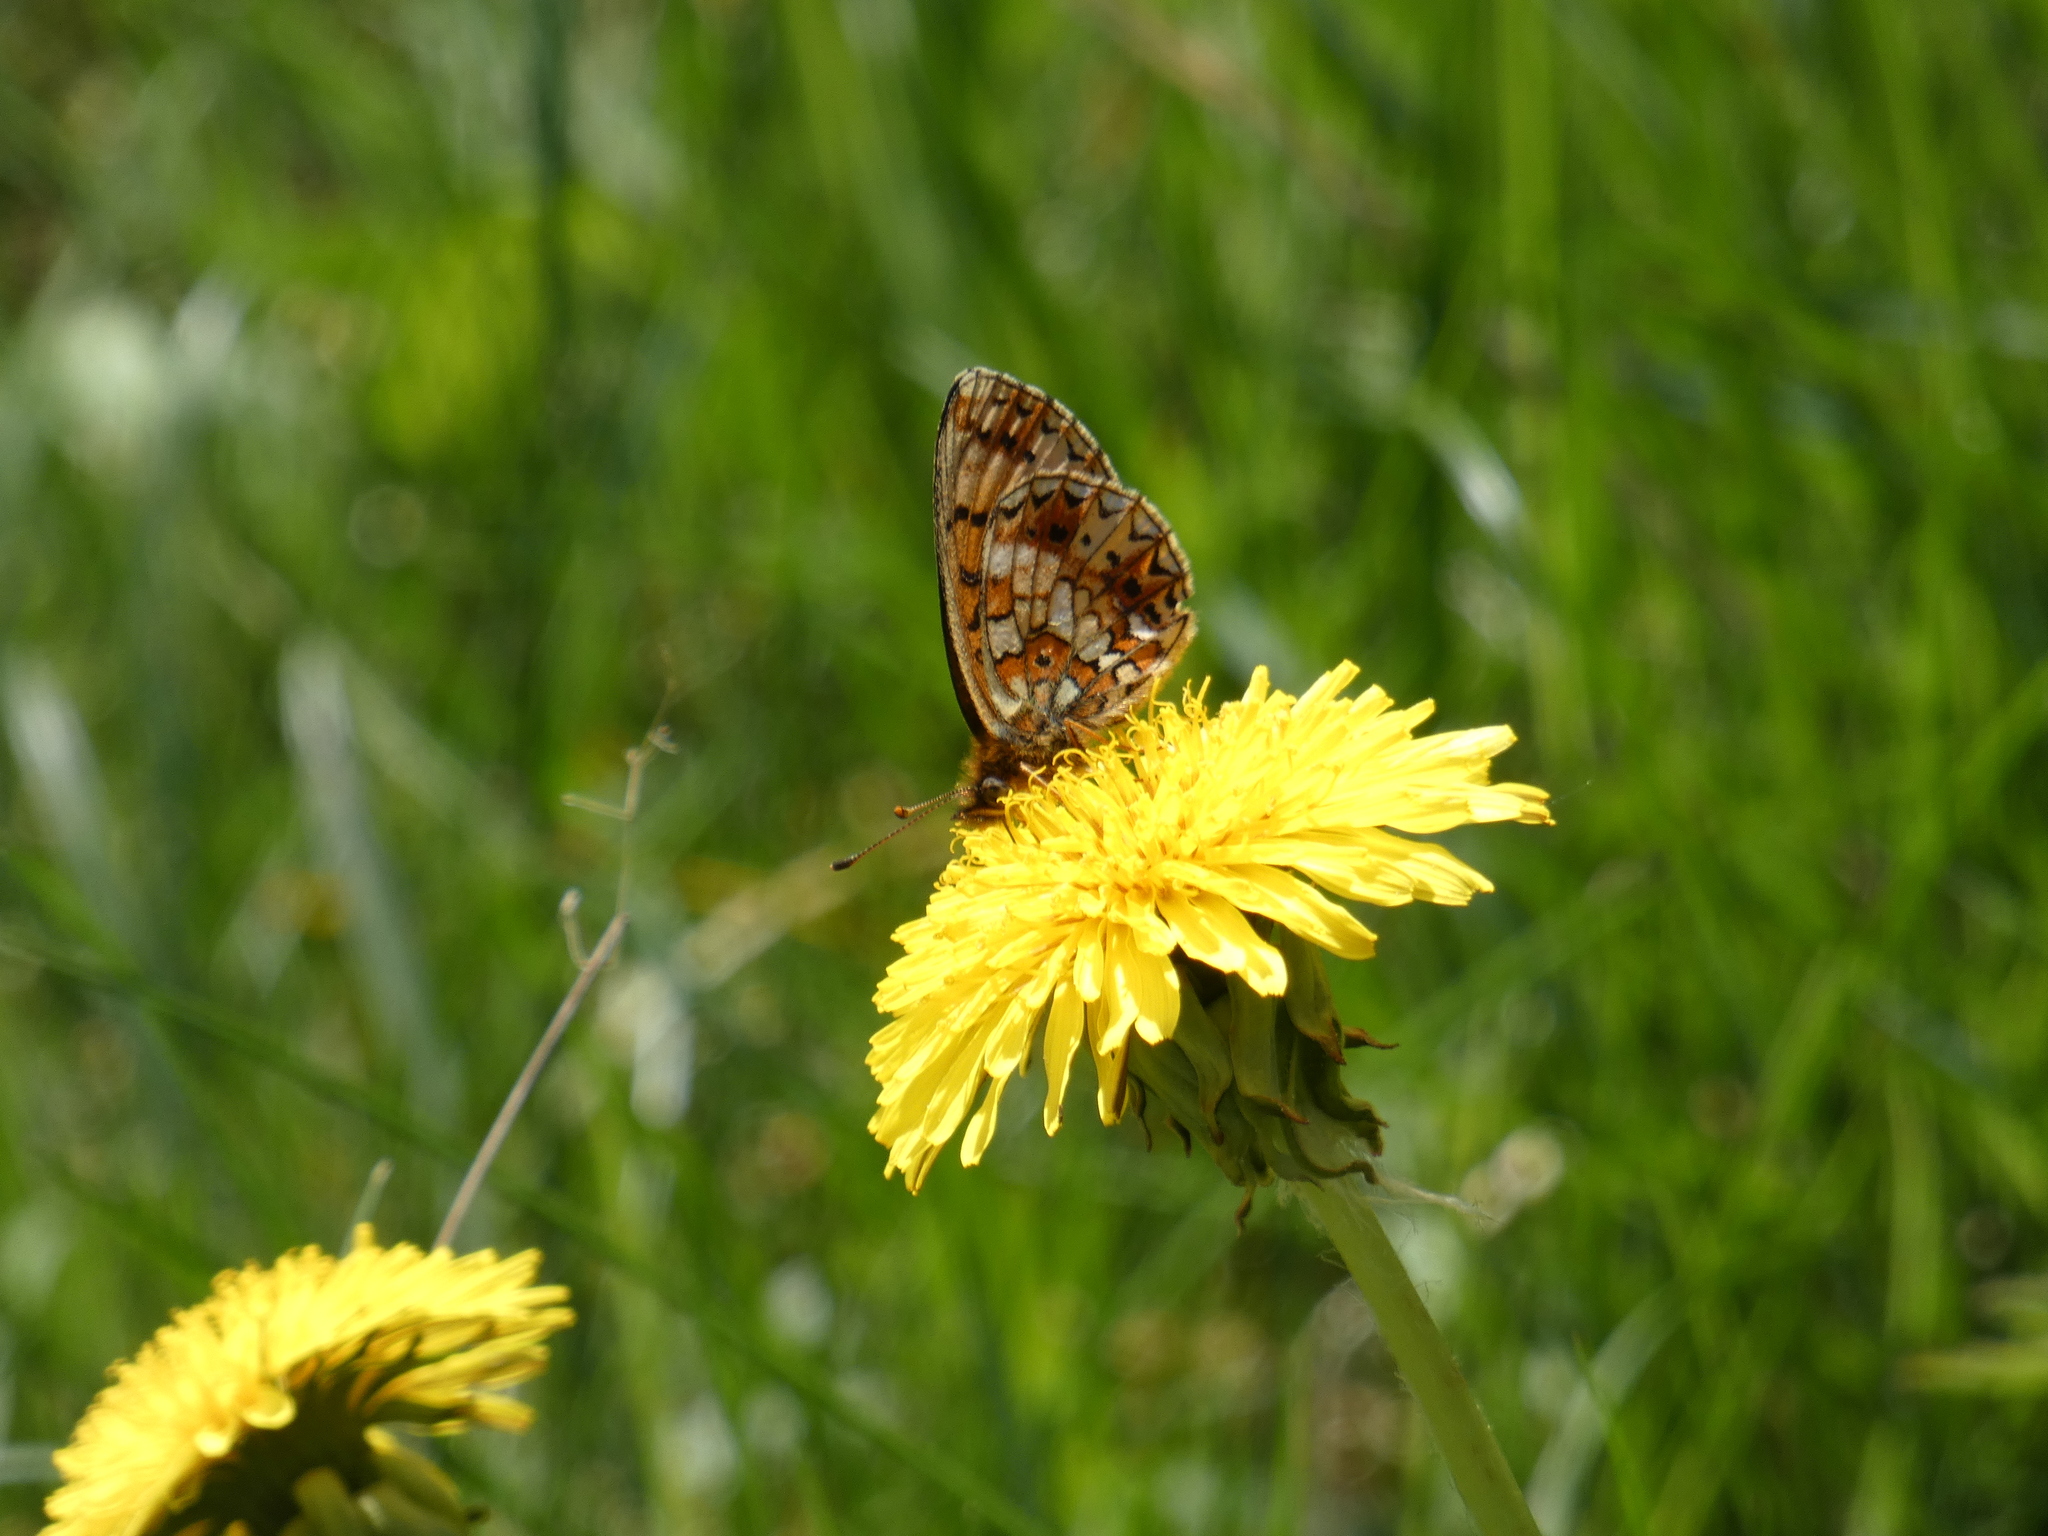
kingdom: Animalia
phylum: Arthropoda
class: Insecta
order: Lepidoptera
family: Nymphalidae
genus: Boloria
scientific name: Boloria selene
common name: Small pearl-bordered fritillary
